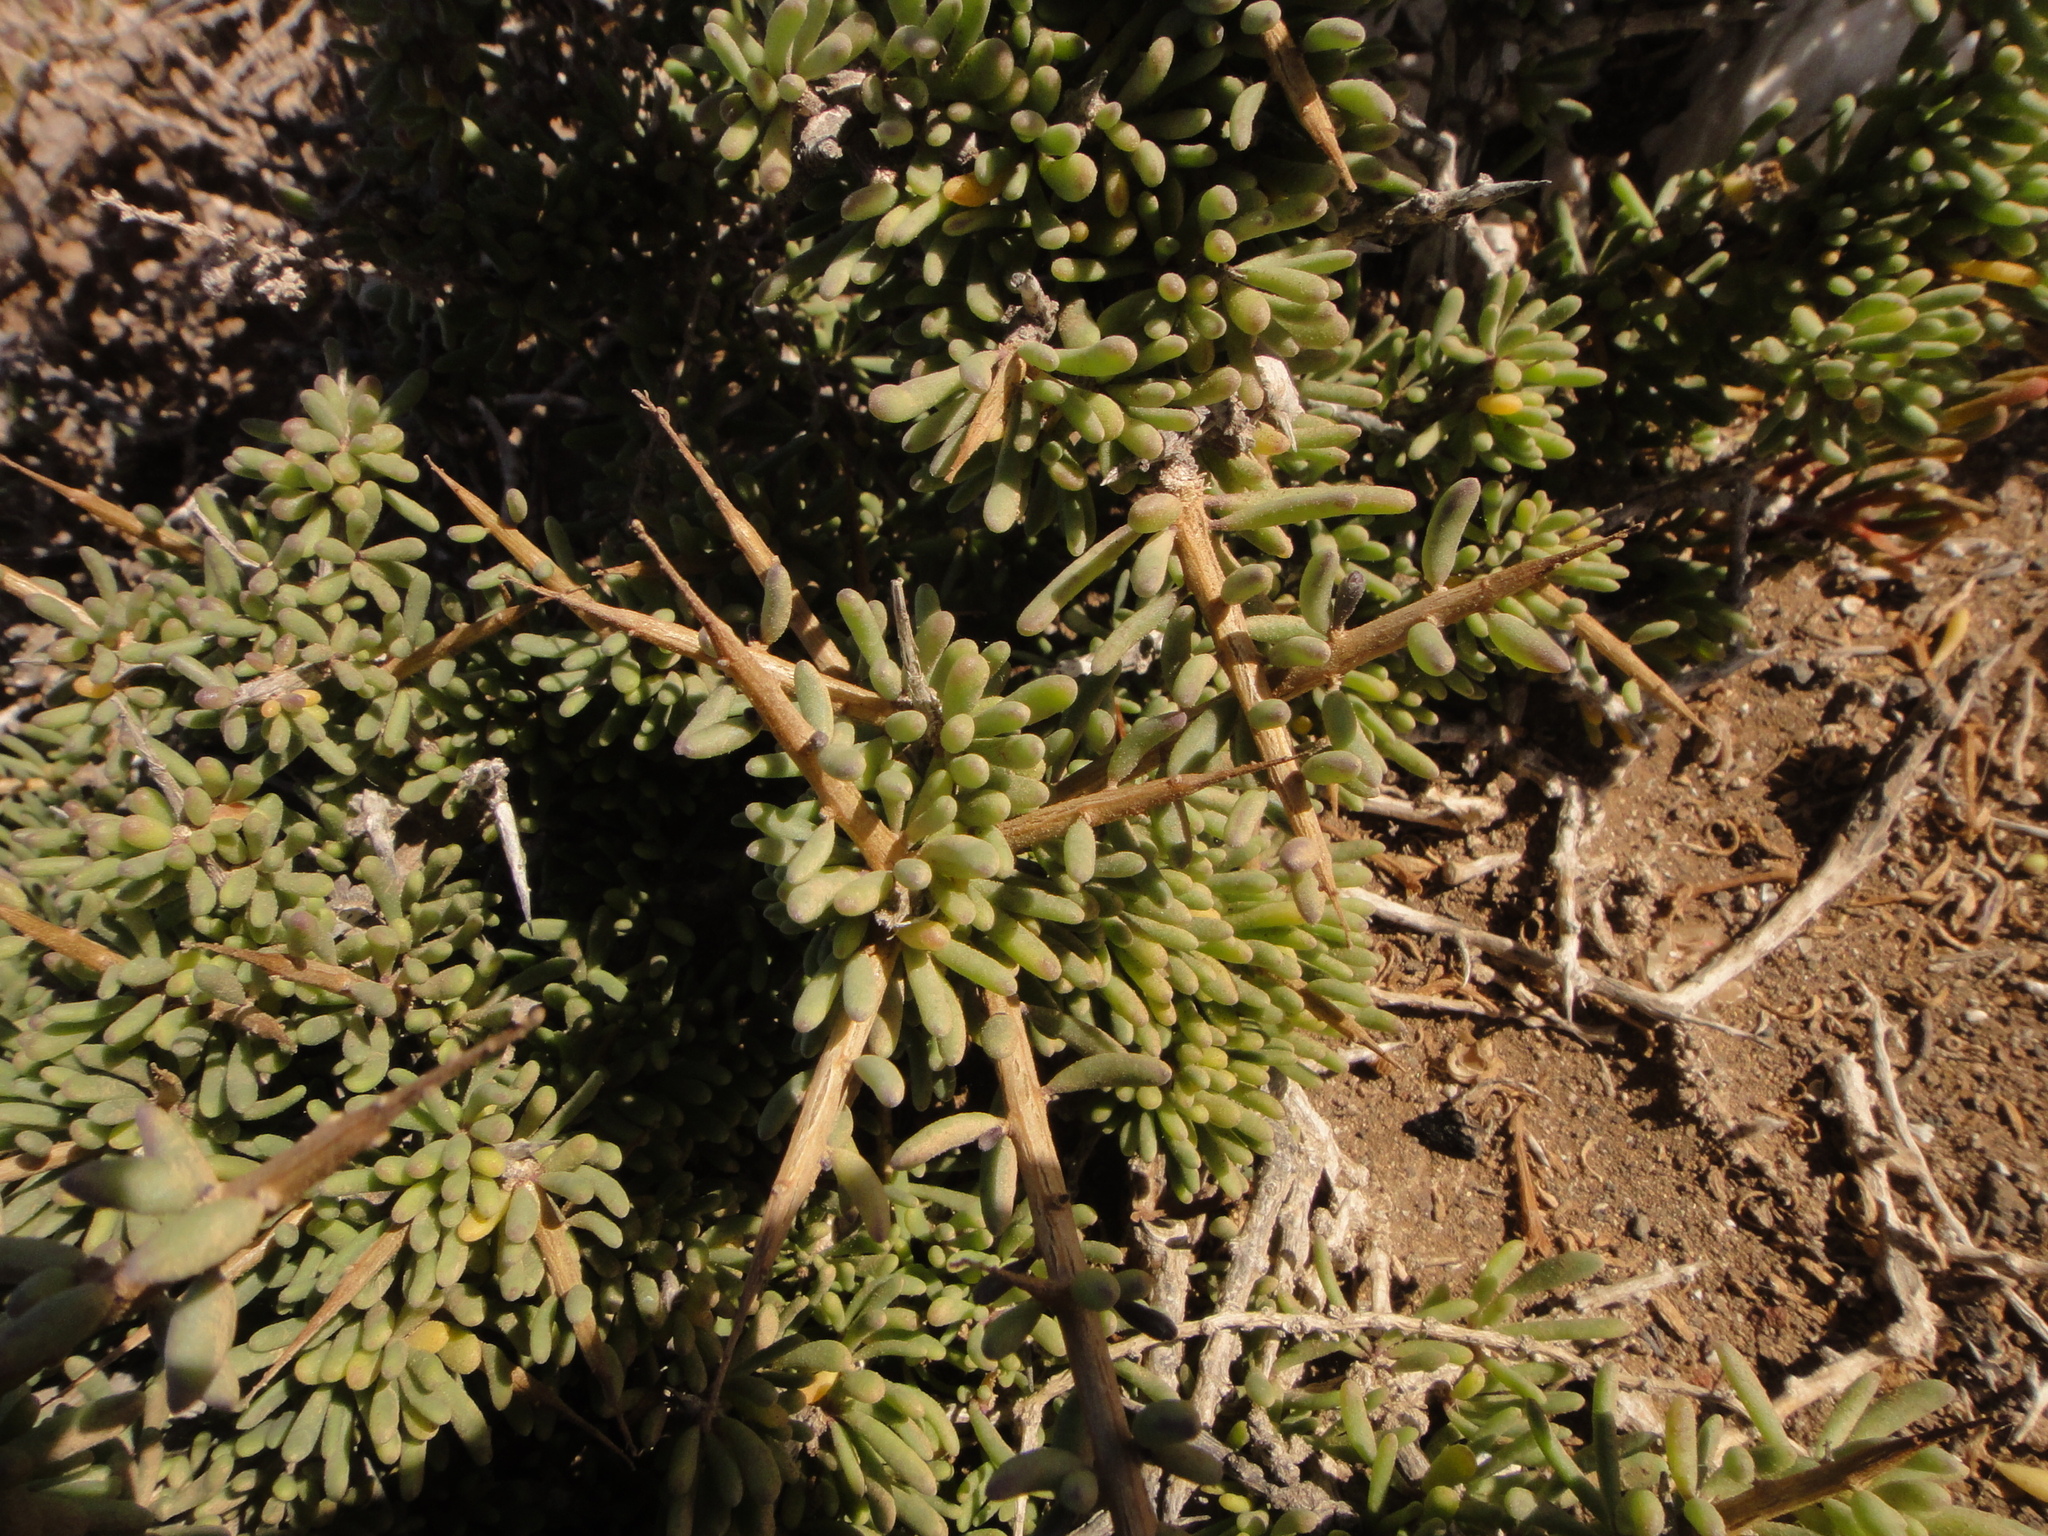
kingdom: Plantae
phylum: Tracheophyta
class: Magnoliopsida
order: Solanales
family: Solanaceae
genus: Lycium
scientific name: Lycium intricatum
